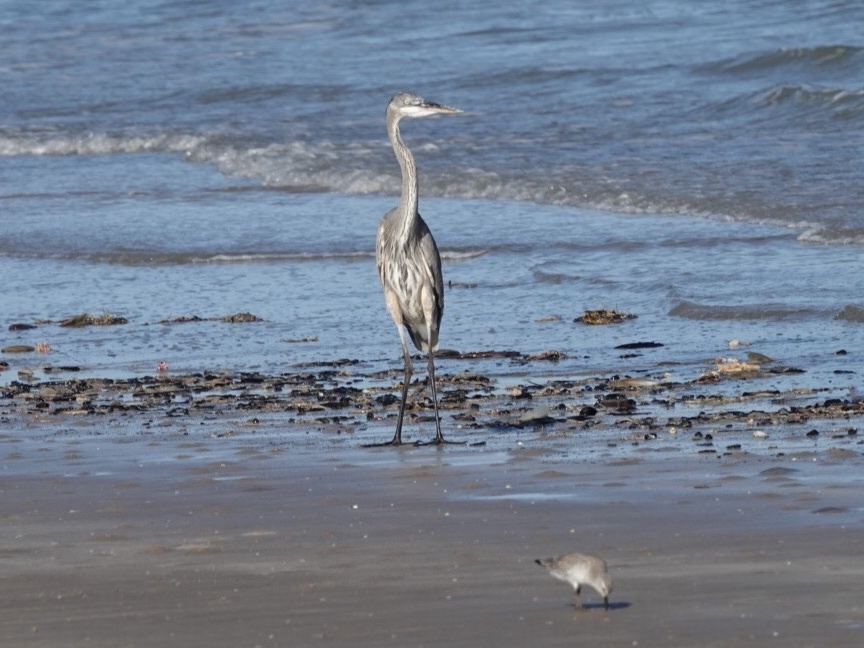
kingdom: Animalia
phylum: Chordata
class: Aves
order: Pelecaniformes
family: Ardeidae
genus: Ardea
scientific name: Ardea herodias
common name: Great blue heron
